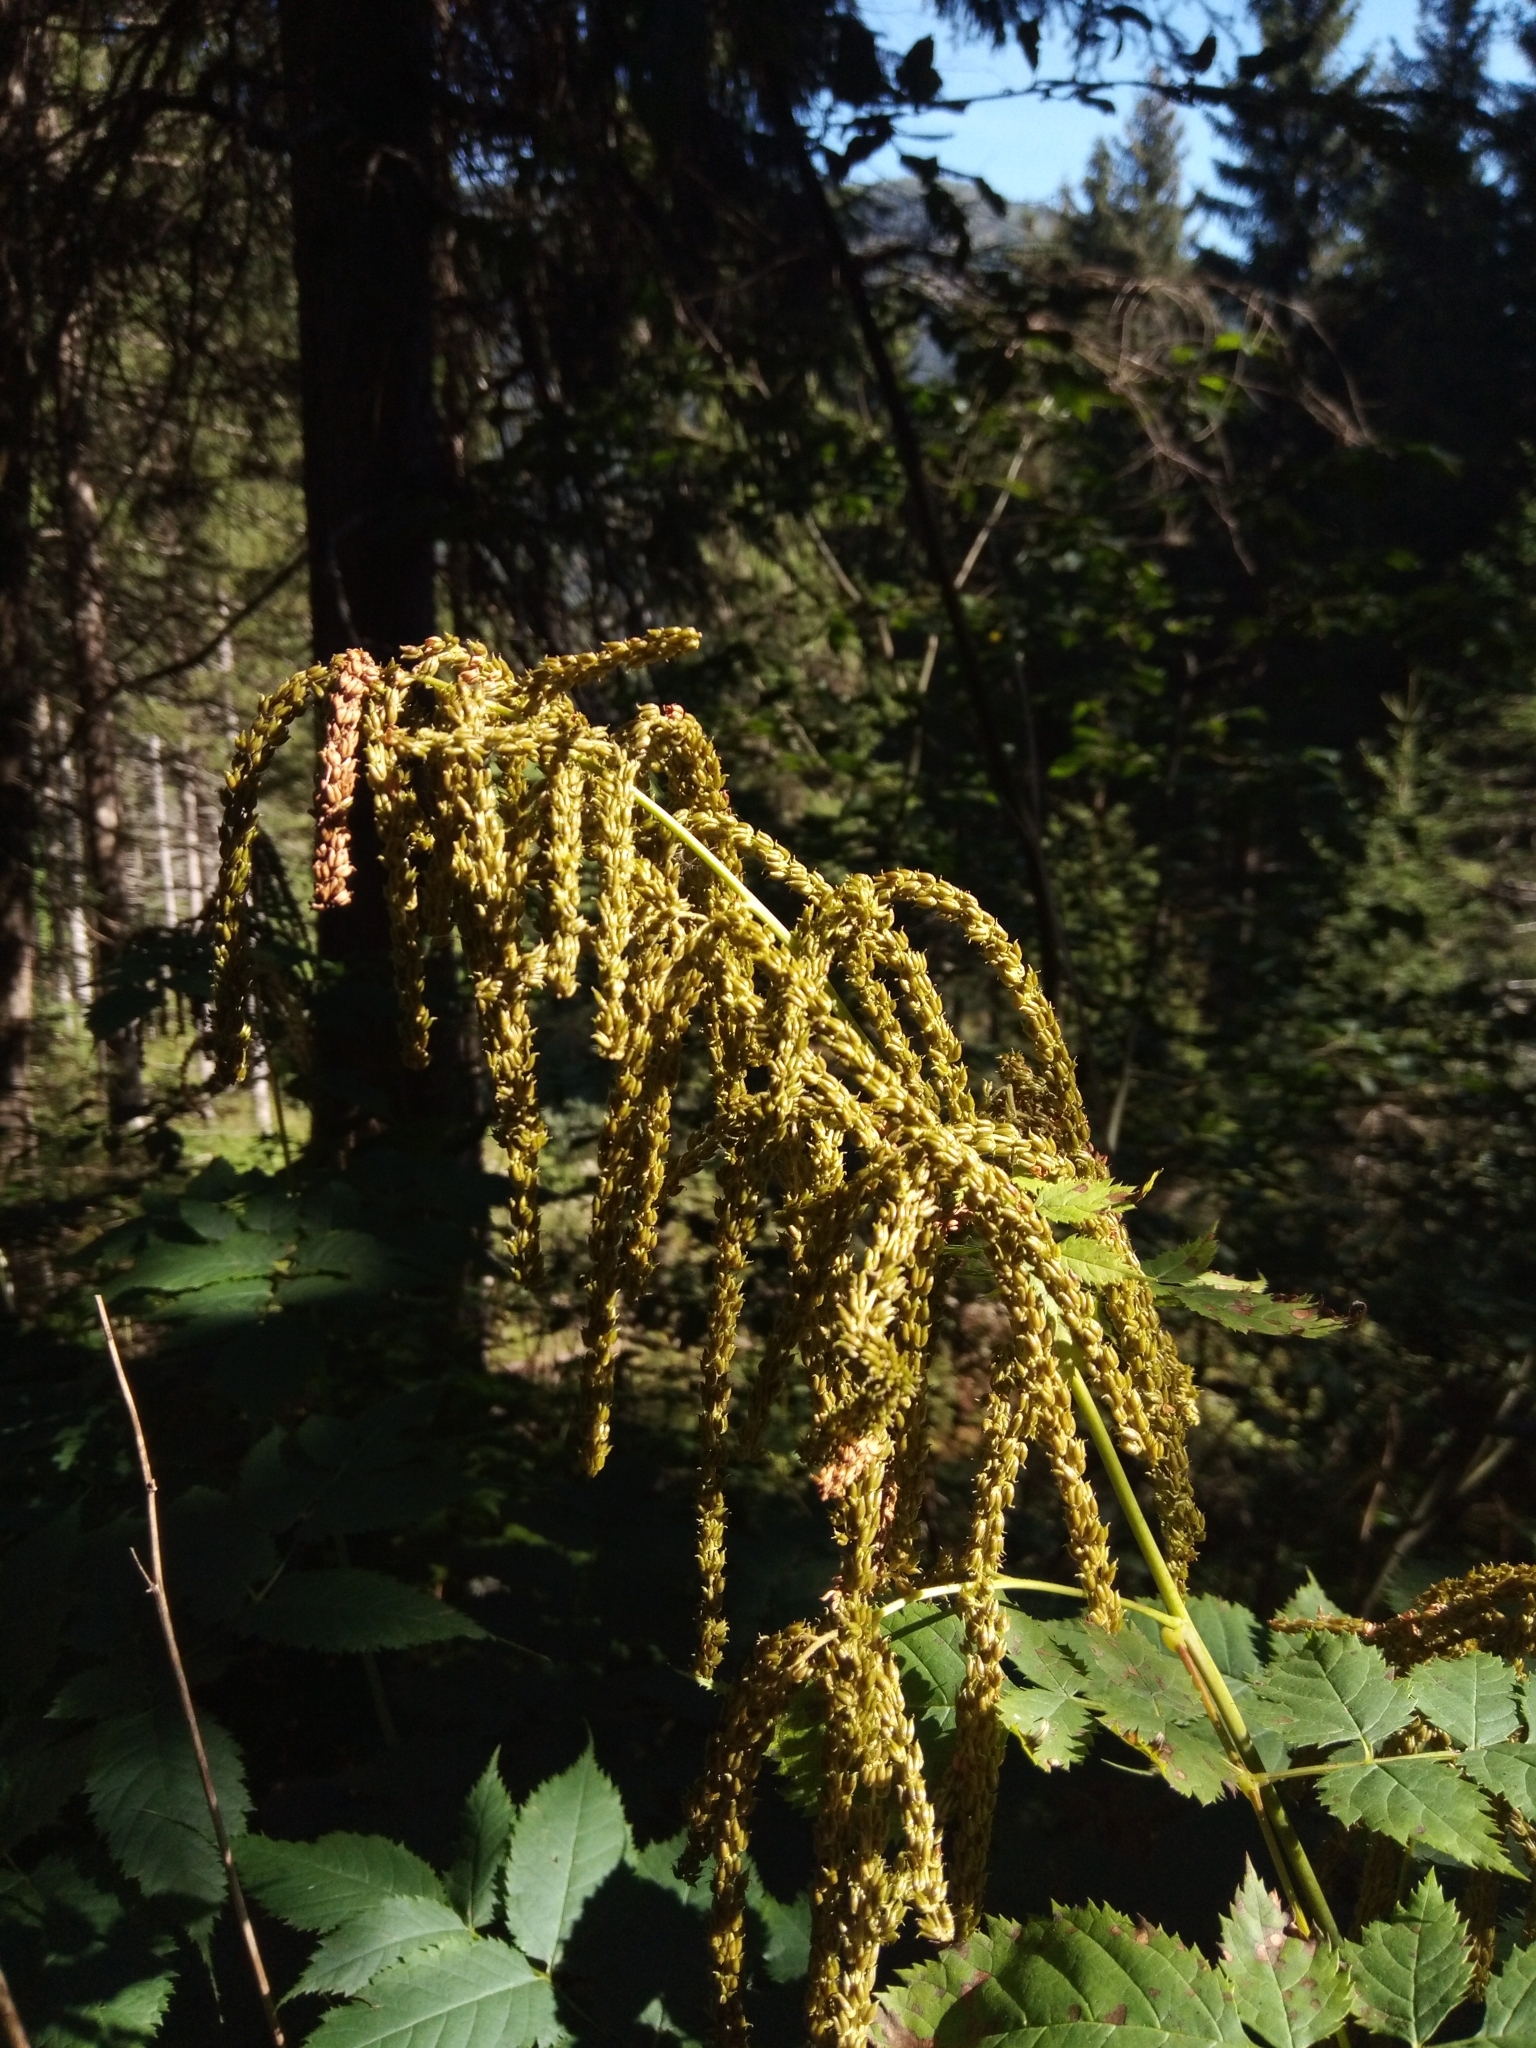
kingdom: Plantae
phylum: Tracheophyta
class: Magnoliopsida
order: Rosales
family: Rosaceae
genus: Aruncus
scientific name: Aruncus dioicus
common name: Buck's-beard
